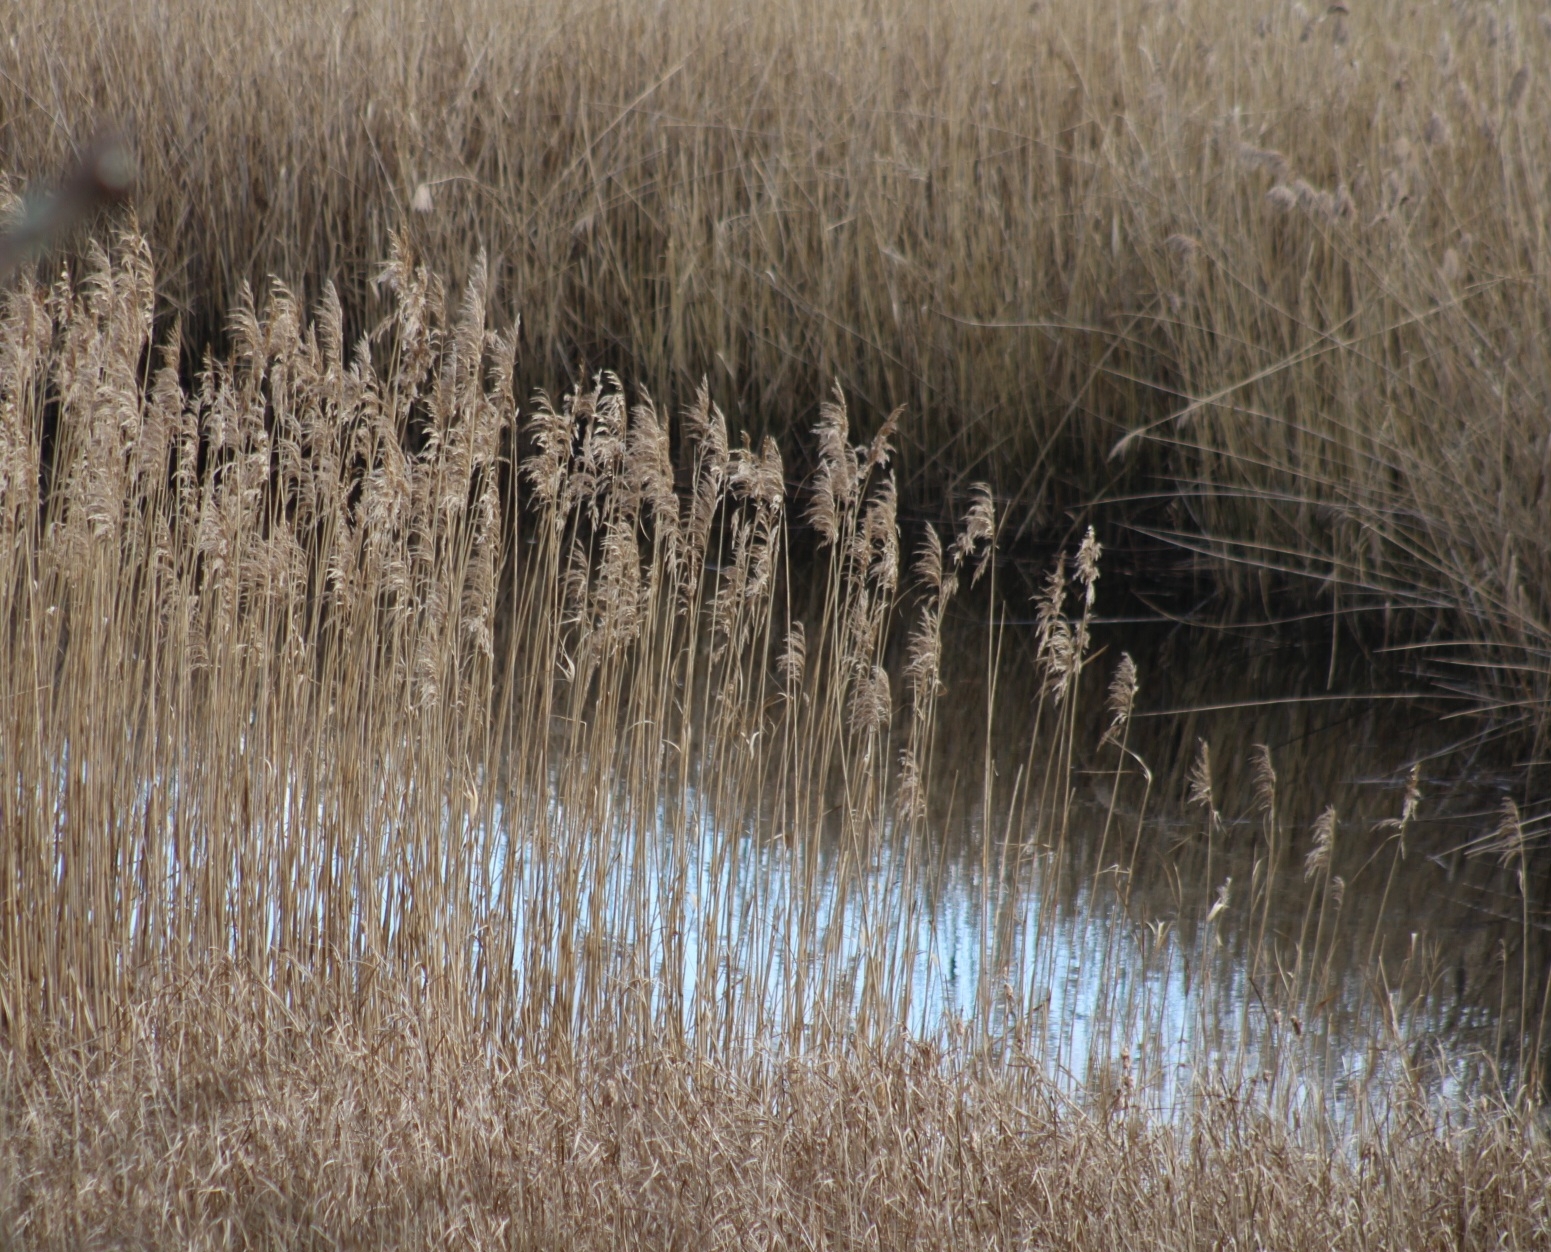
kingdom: Plantae
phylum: Tracheophyta
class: Liliopsida
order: Poales
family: Poaceae
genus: Phragmites
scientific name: Phragmites australis
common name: Common reed
